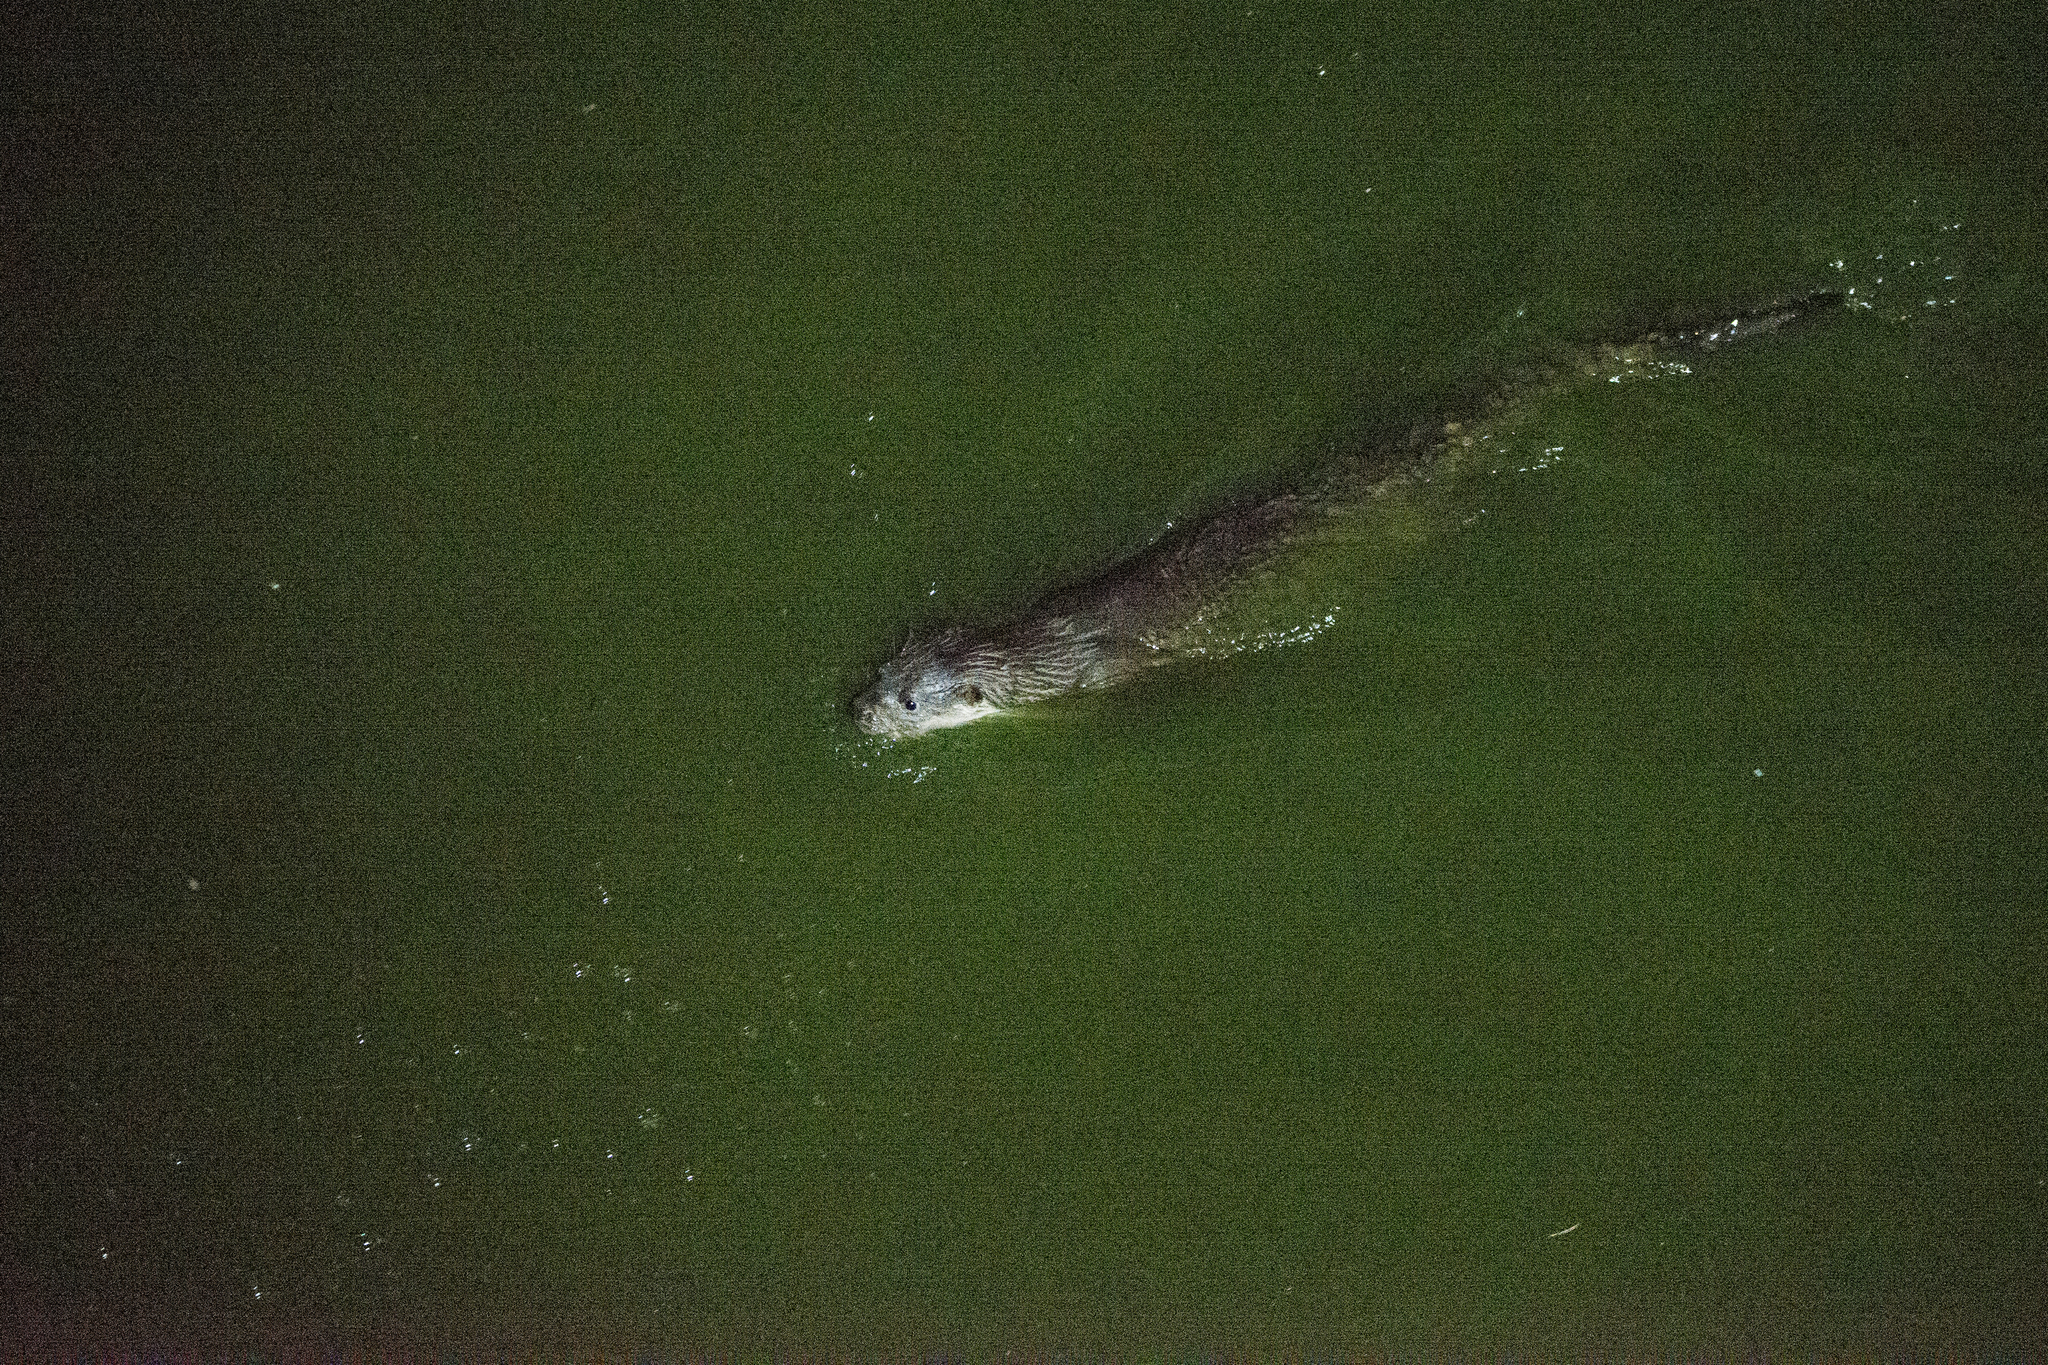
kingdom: Animalia
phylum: Chordata
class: Mammalia
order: Carnivora
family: Mustelidae
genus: Lutra
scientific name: Lutra lutra
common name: European otter
